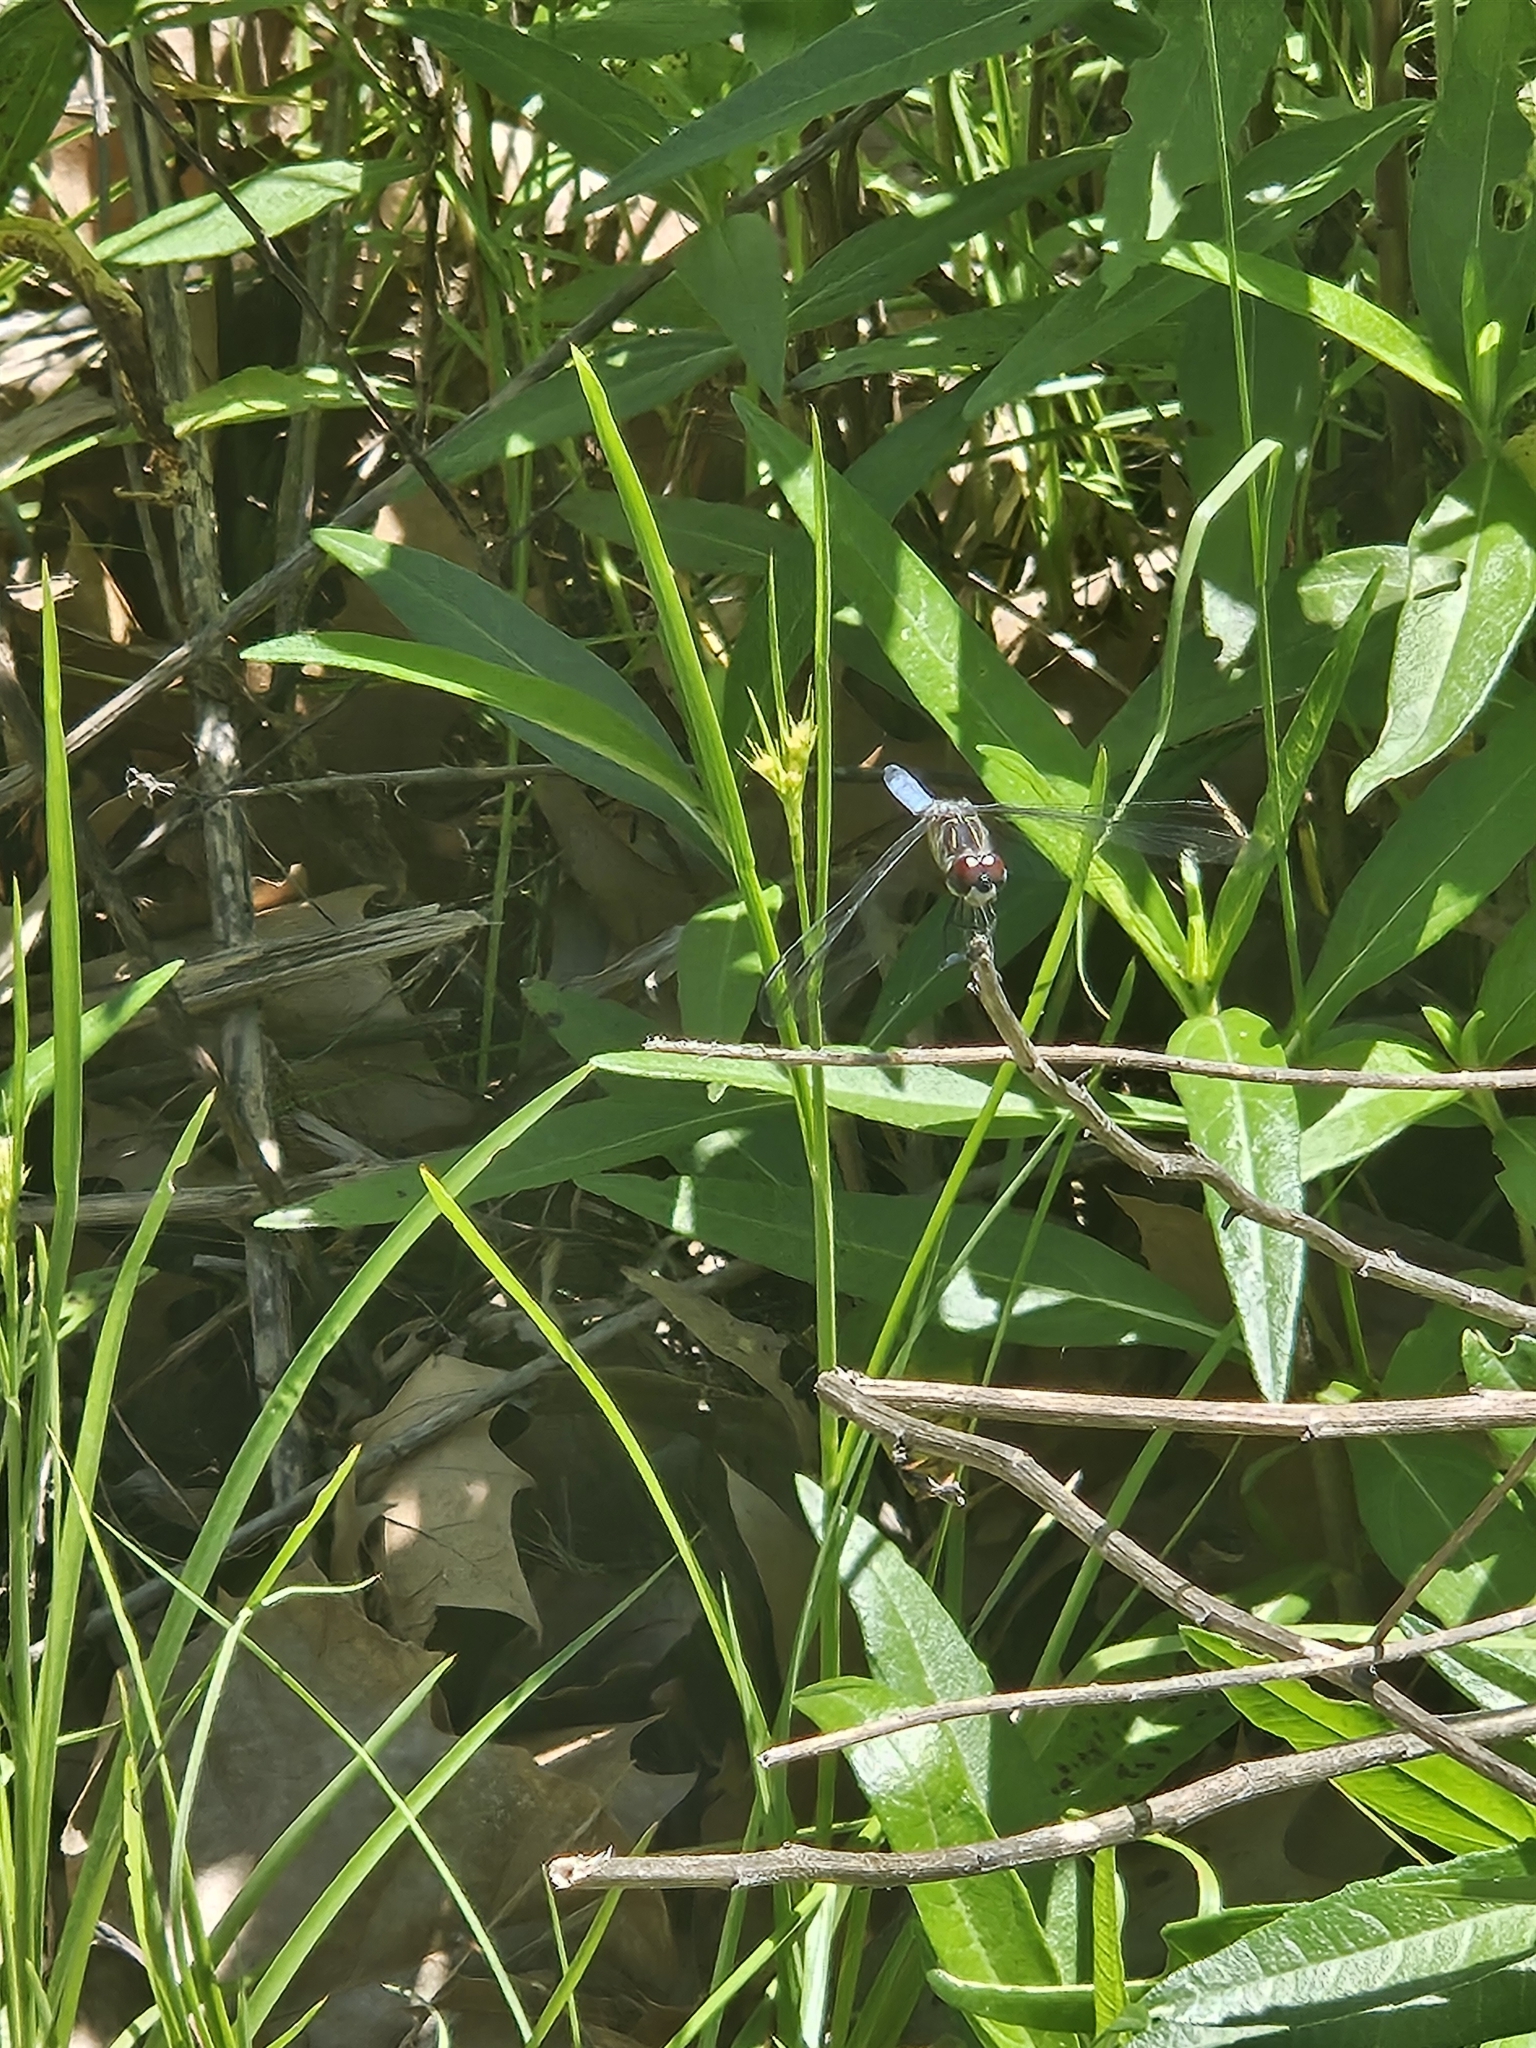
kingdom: Animalia
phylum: Arthropoda
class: Insecta
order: Odonata
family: Libellulidae
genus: Pachydiplax
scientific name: Pachydiplax longipennis
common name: Blue dasher
